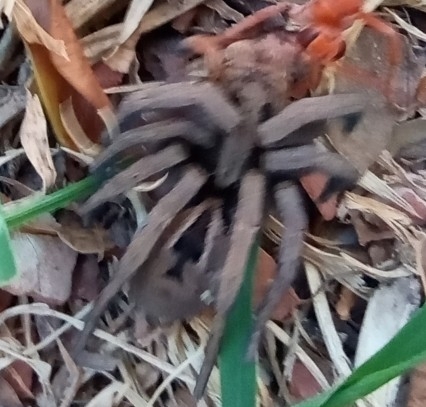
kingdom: Animalia
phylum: Arthropoda
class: Arachnida
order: Araneae
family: Lycosidae
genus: Lycosa
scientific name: Lycosa erythrognatha
